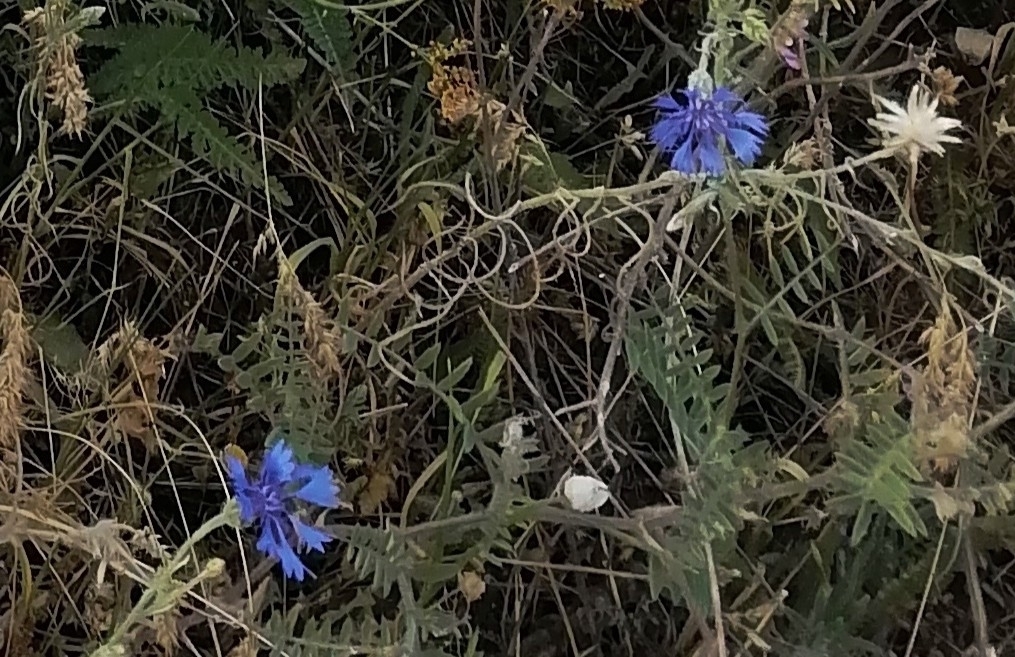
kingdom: Plantae
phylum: Tracheophyta
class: Magnoliopsida
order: Asterales
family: Asteraceae
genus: Centaurea
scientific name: Centaurea cyanus
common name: Cornflower
